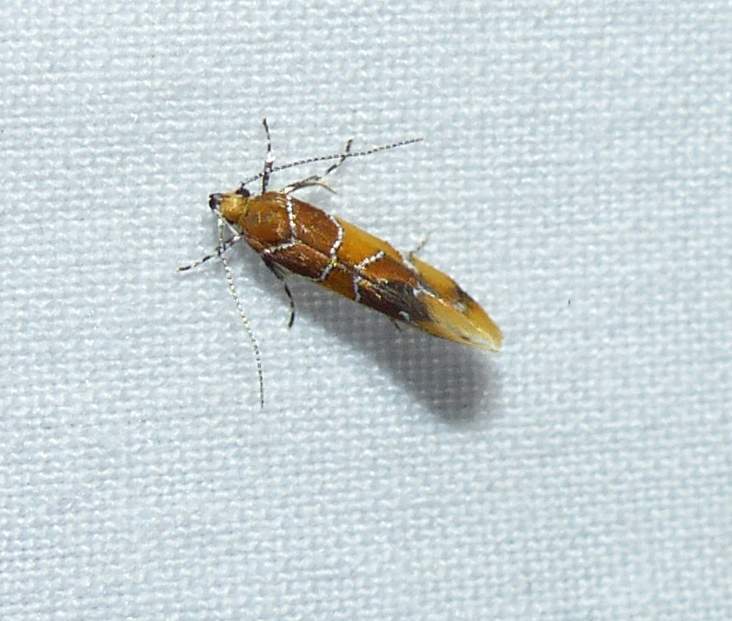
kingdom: Animalia
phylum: Arthropoda
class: Insecta
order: Lepidoptera
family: Oecophoridae
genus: Callima
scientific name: Callima argenticinctella
